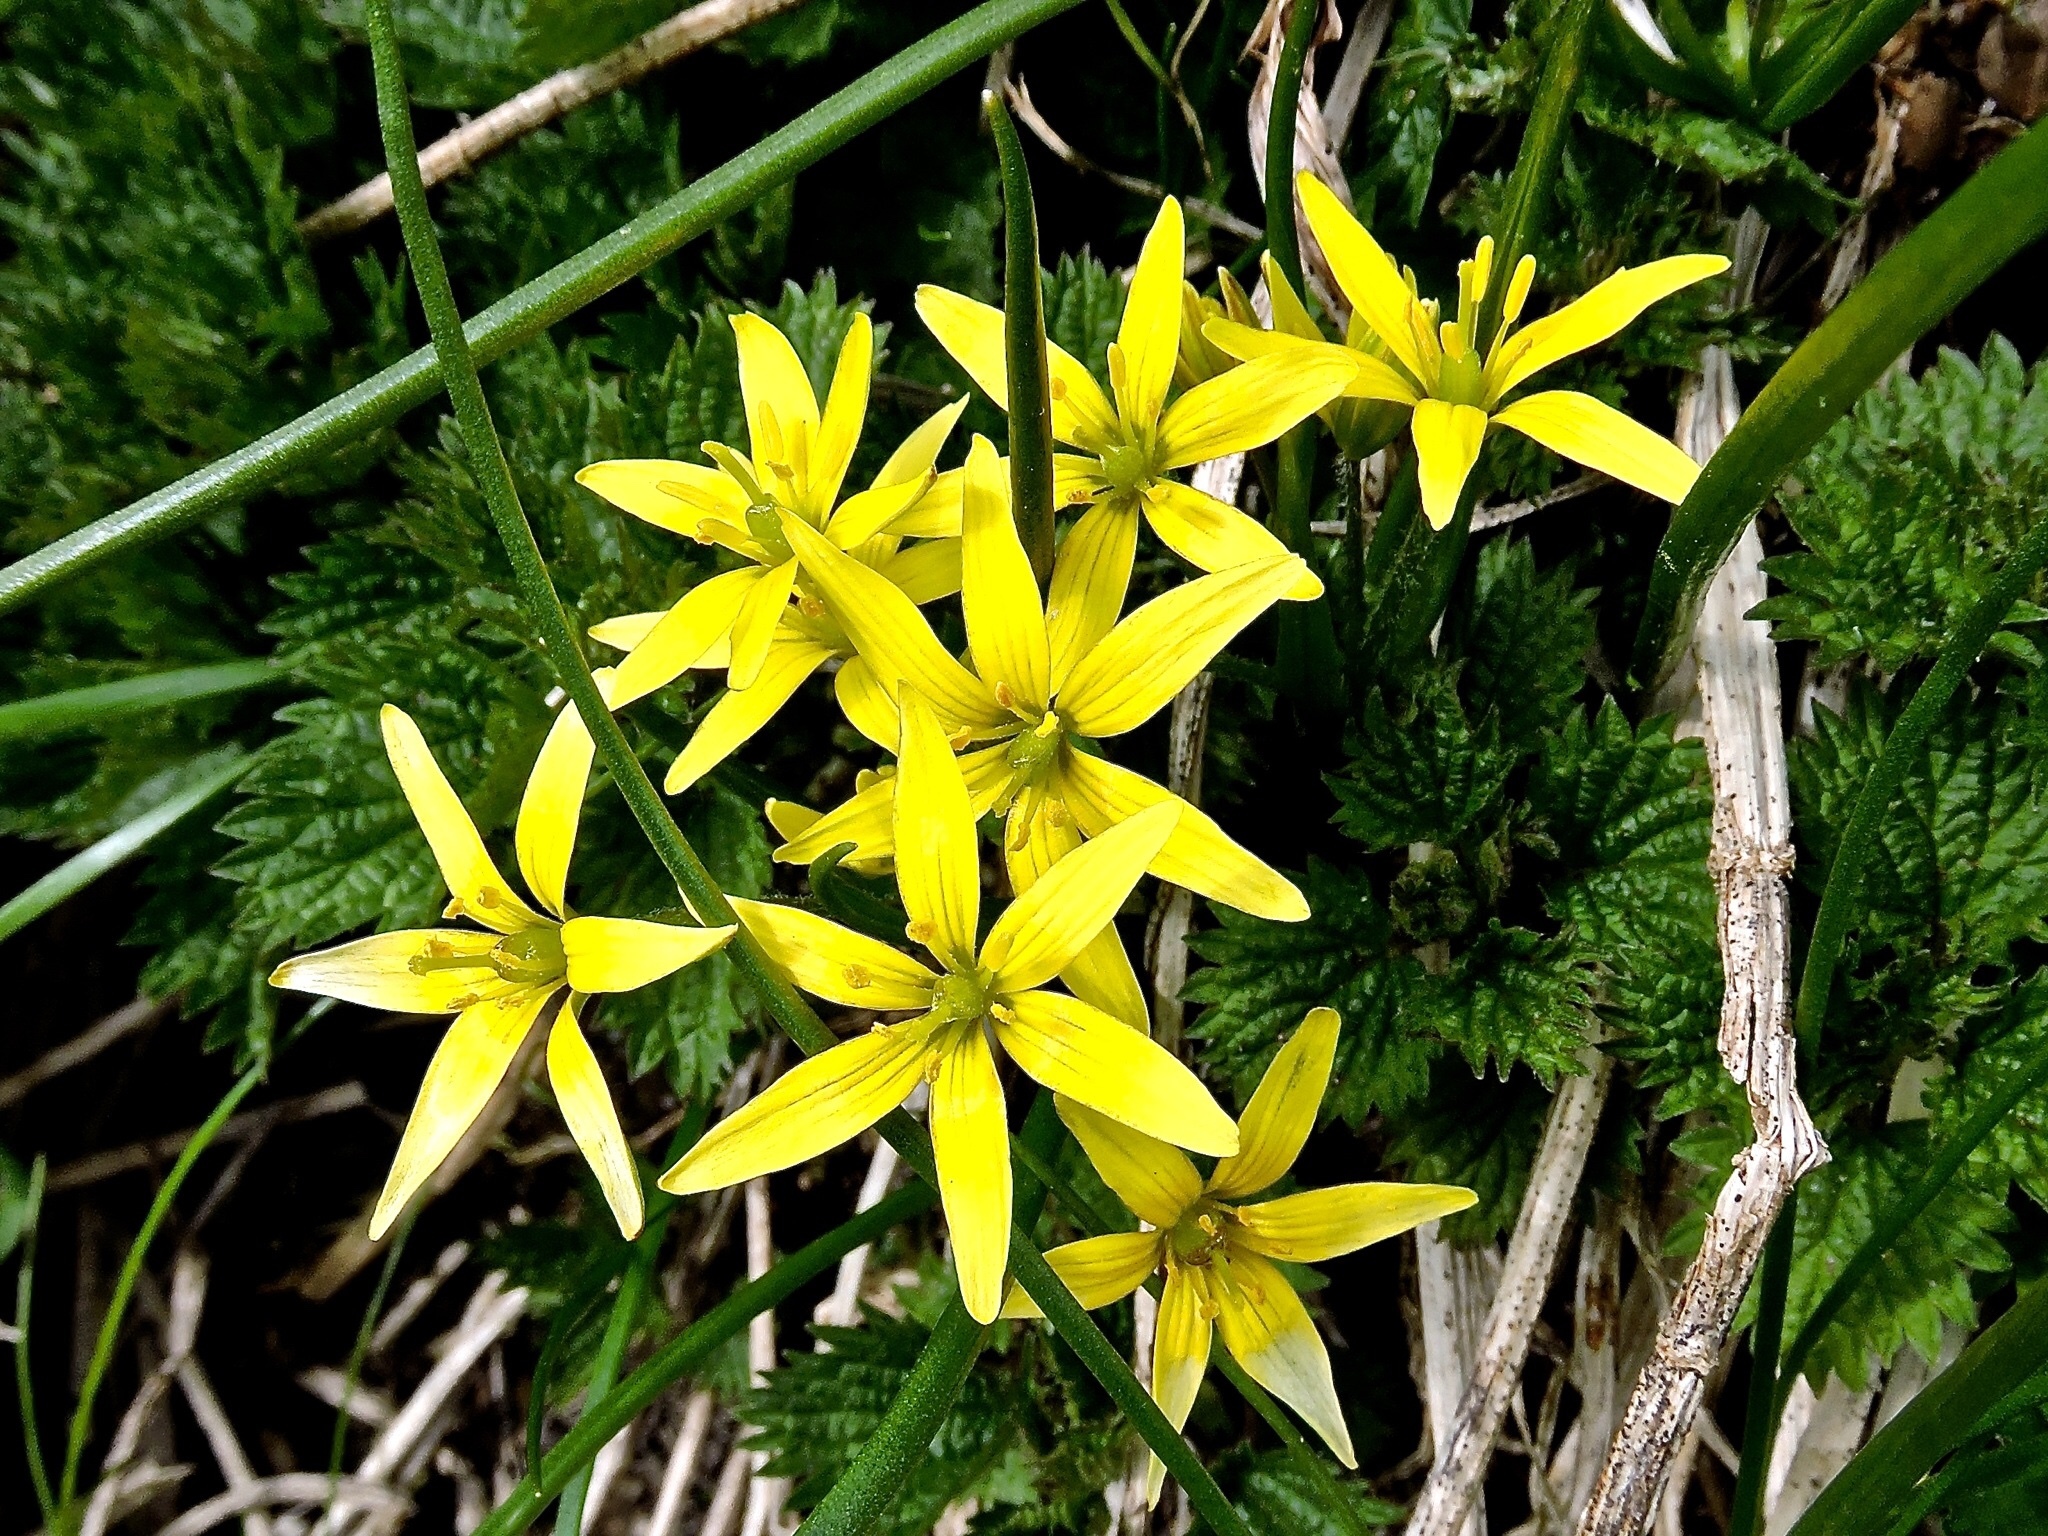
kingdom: Plantae
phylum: Tracheophyta
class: Liliopsida
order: Liliales
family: Liliaceae
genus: Gagea
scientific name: Gagea fragifera
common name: Lily
